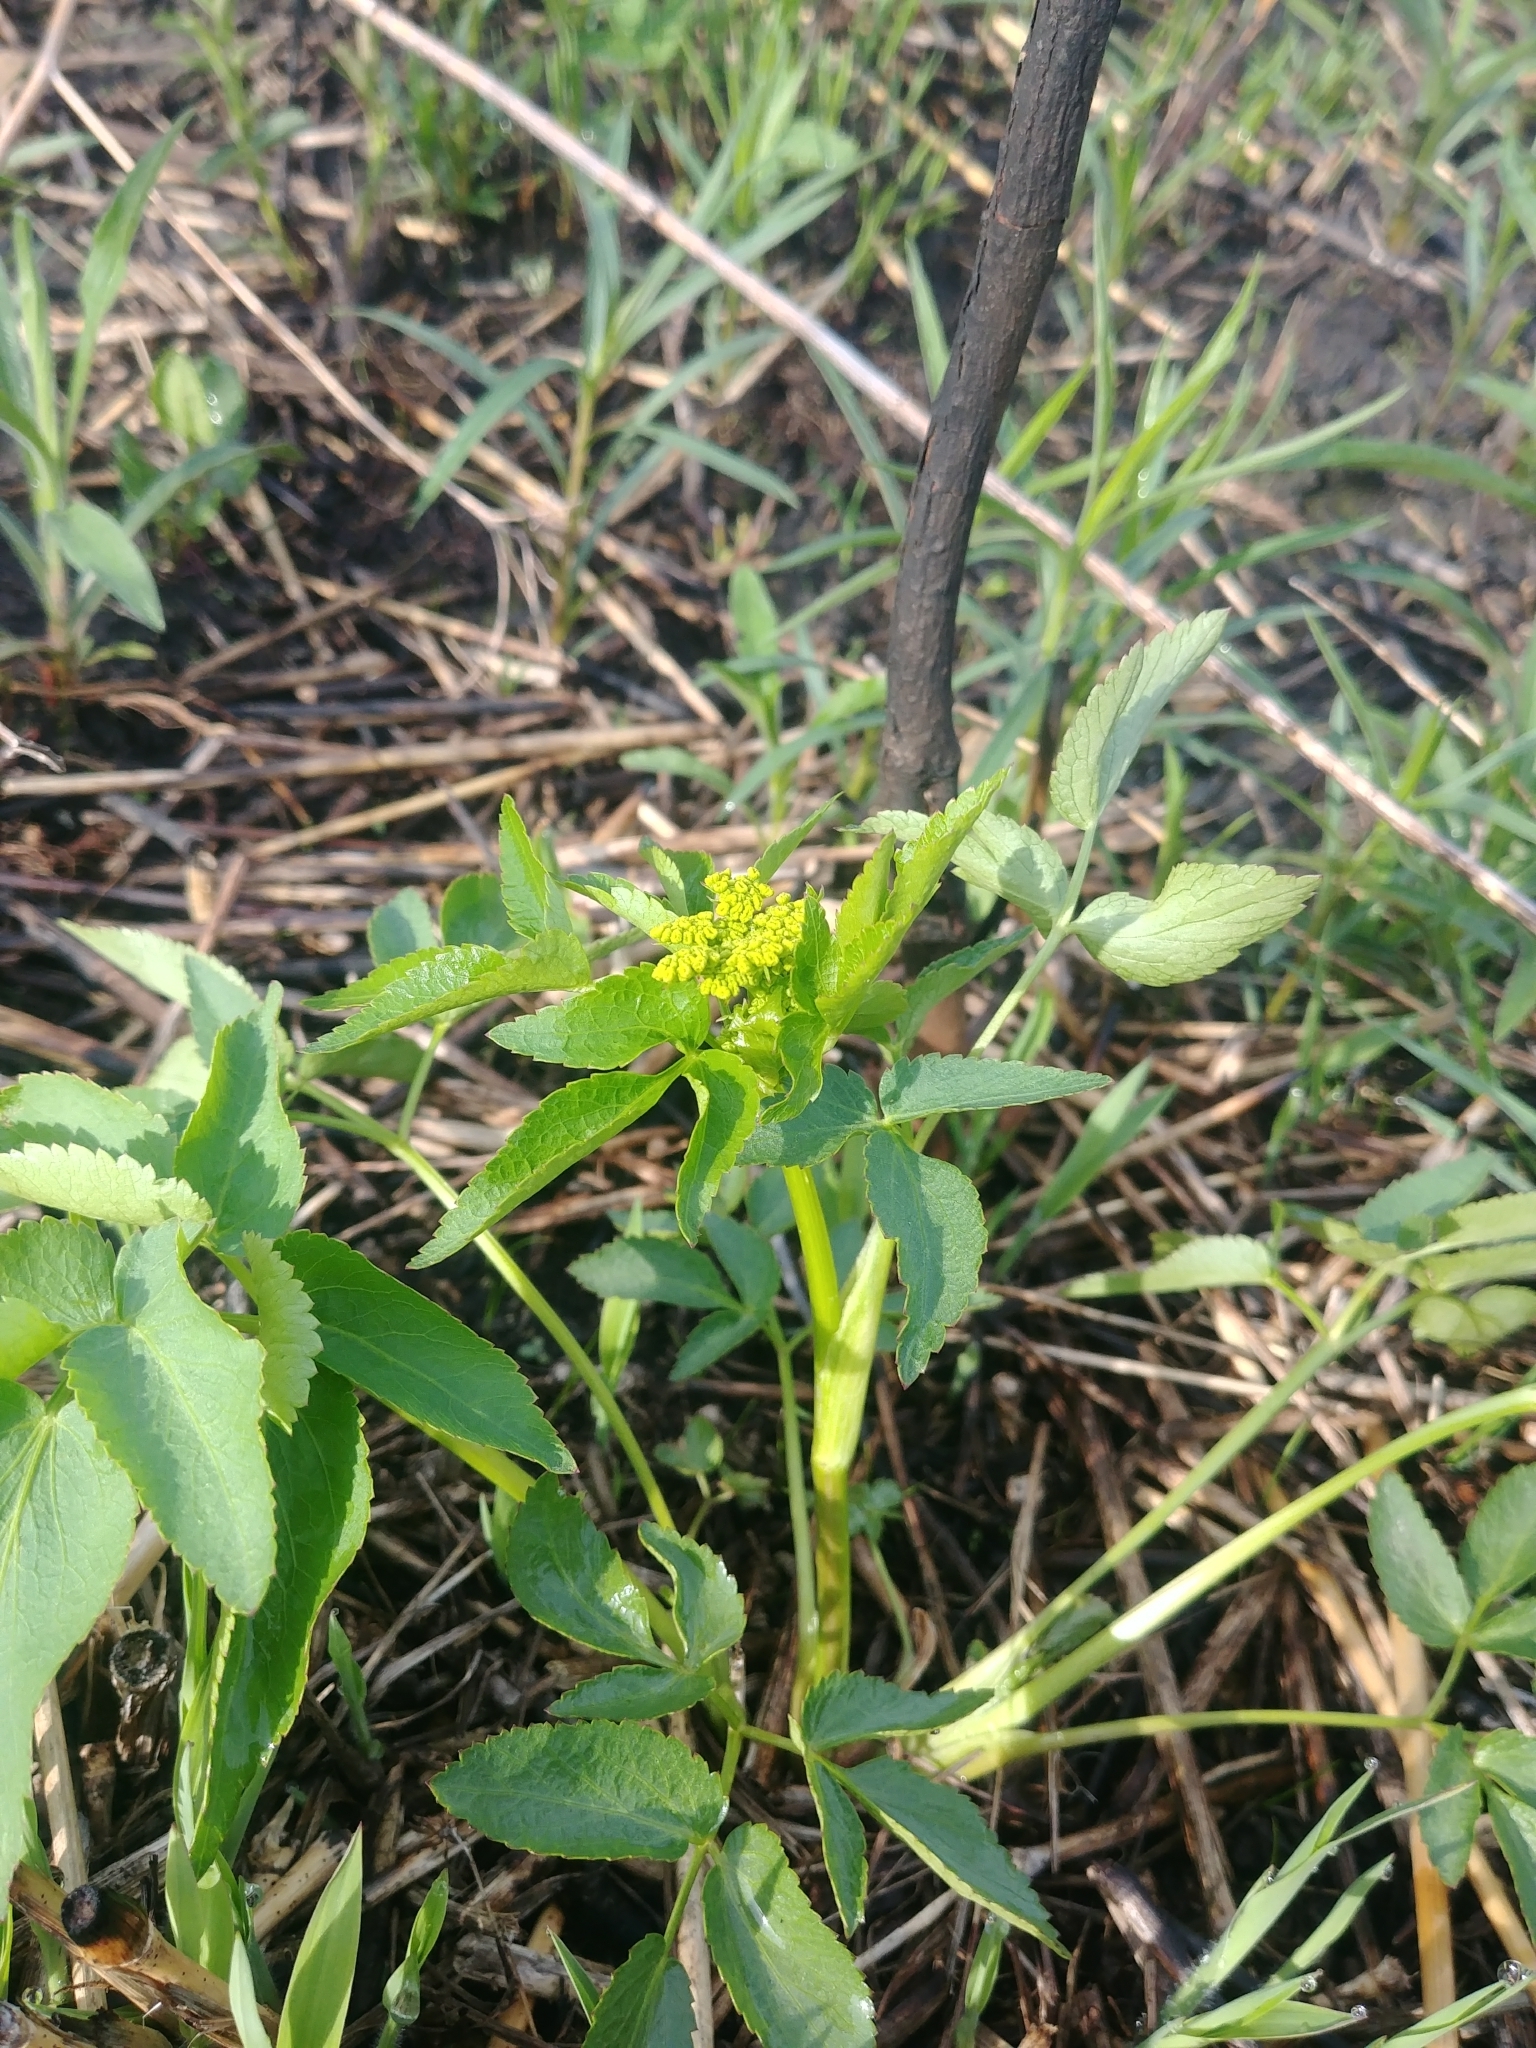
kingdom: Plantae
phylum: Tracheophyta
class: Magnoliopsida
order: Apiales
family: Apiaceae
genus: Zizia
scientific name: Zizia aurea
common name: Golden alexanders
